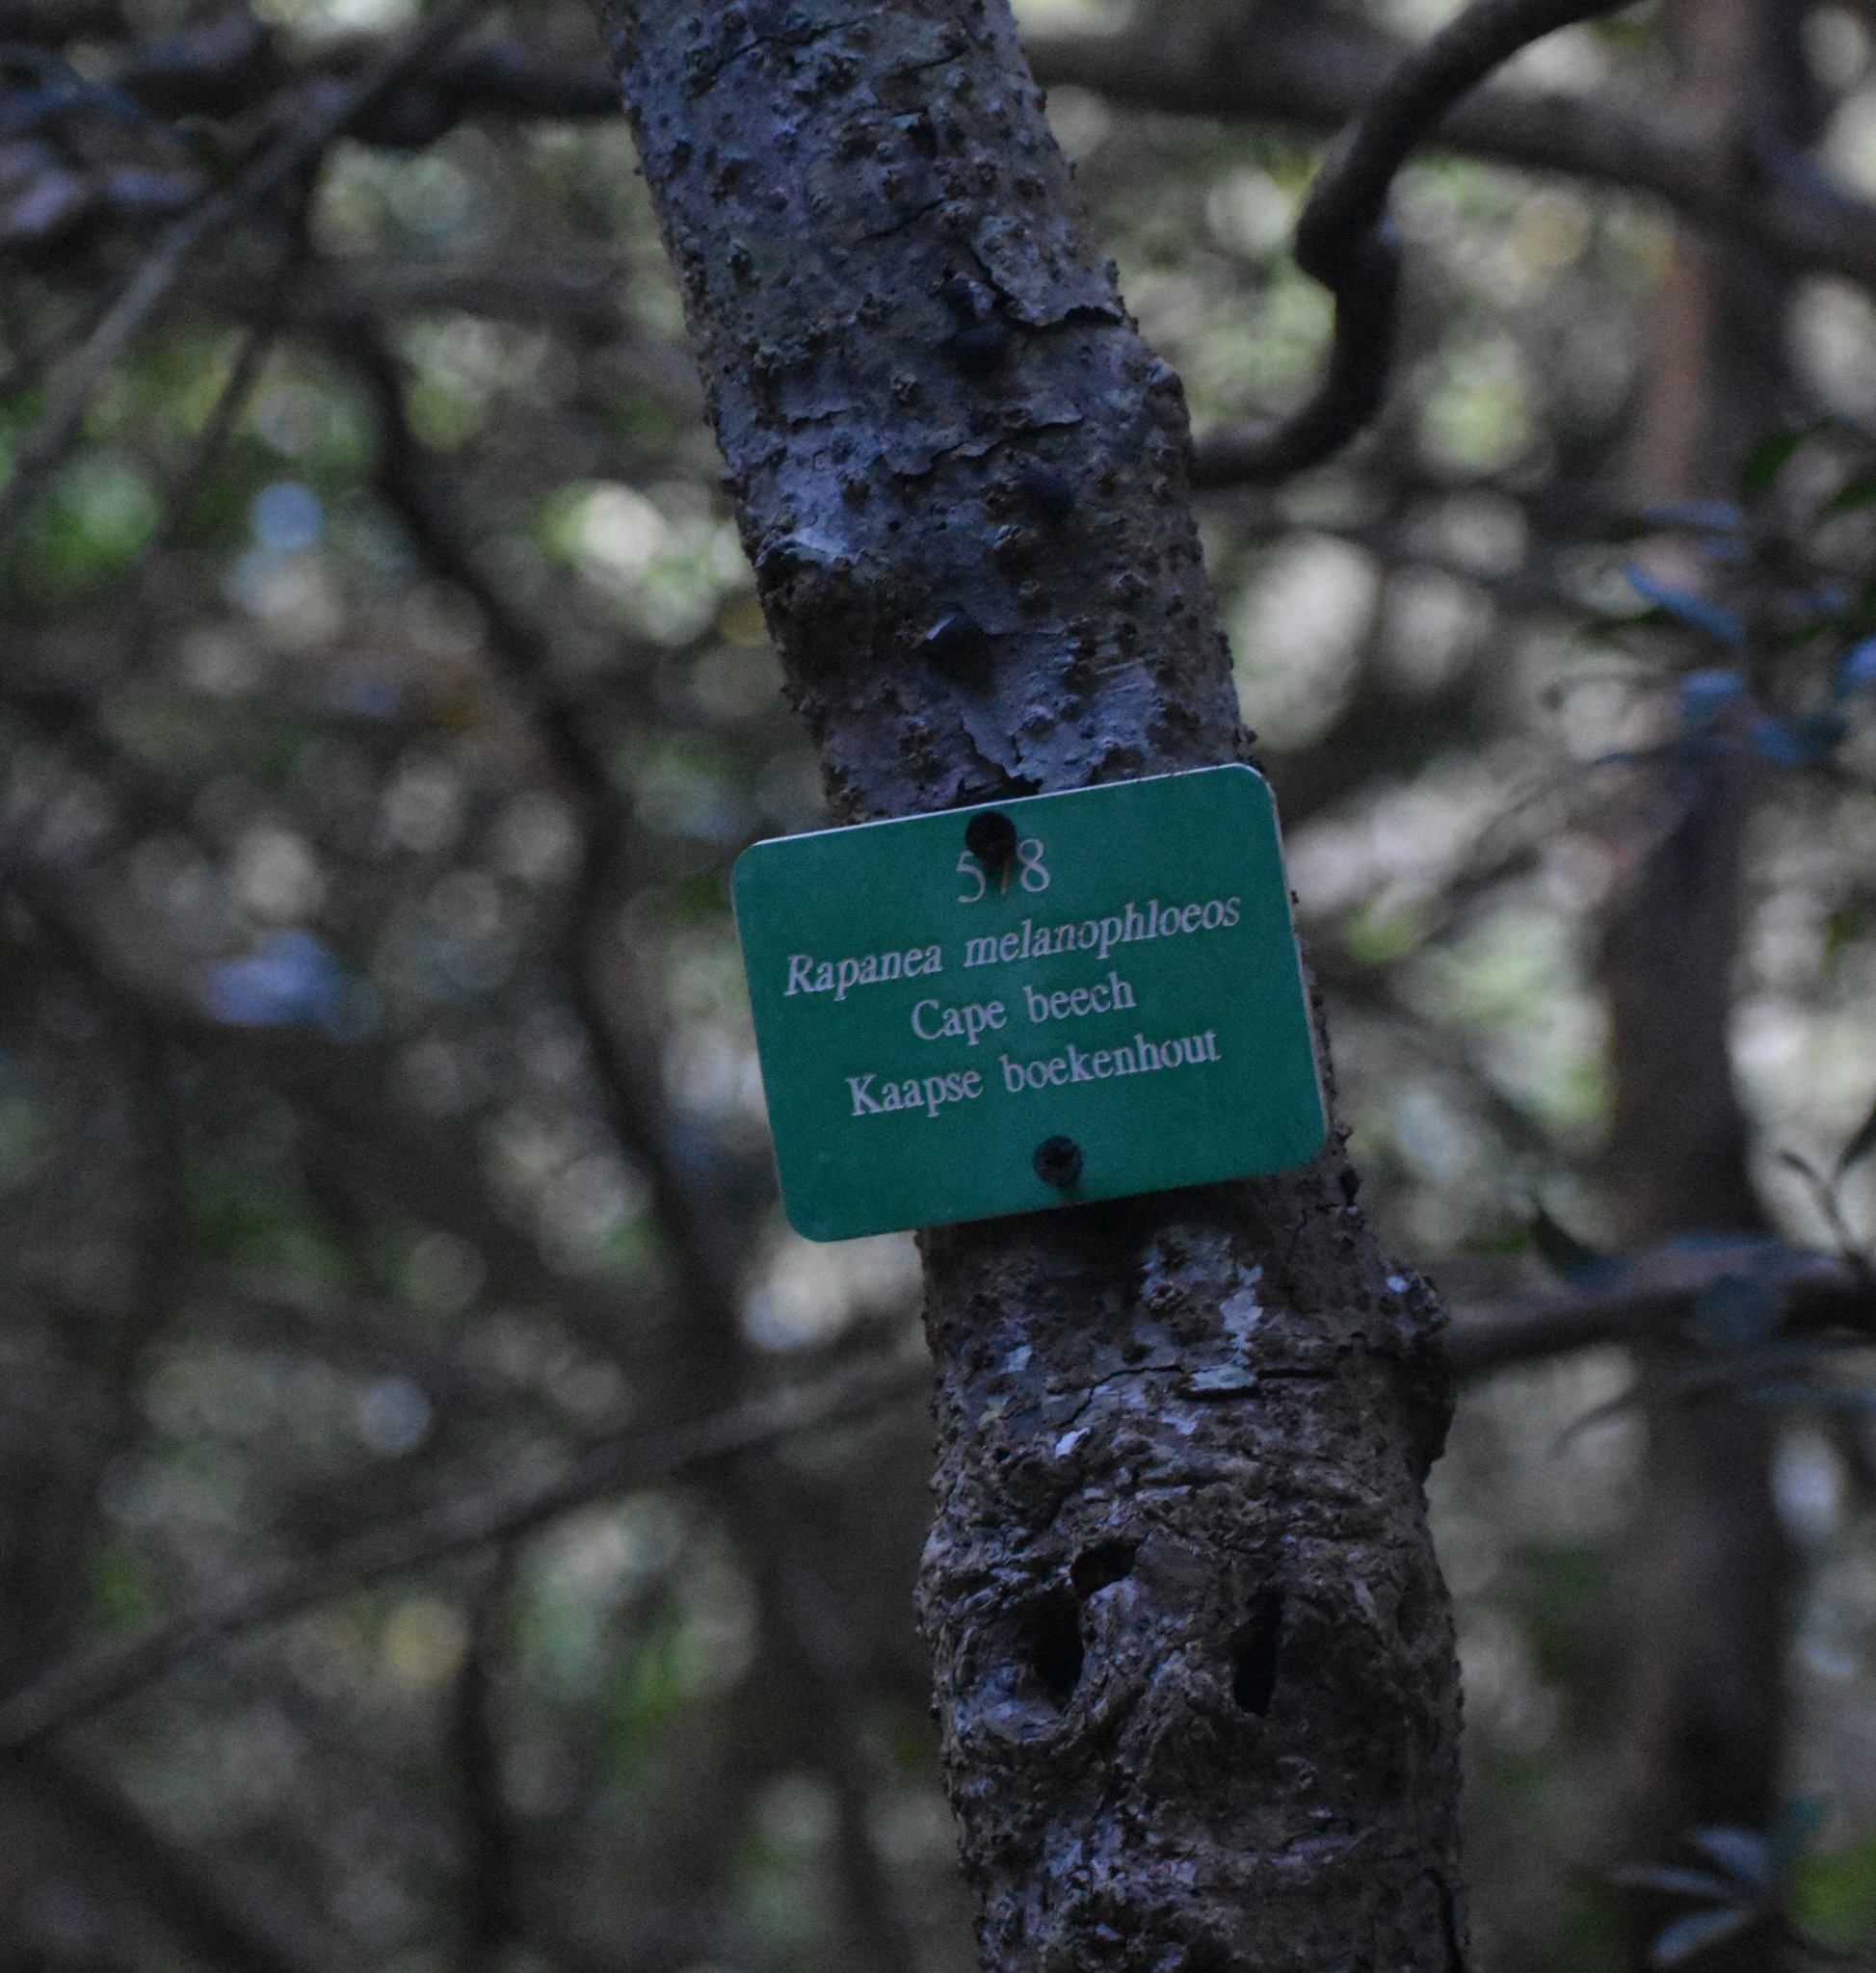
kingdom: Plantae
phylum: Tracheophyta
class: Magnoliopsida
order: Ericales
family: Primulaceae
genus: Myrsine
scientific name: Myrsine melanophloeos
